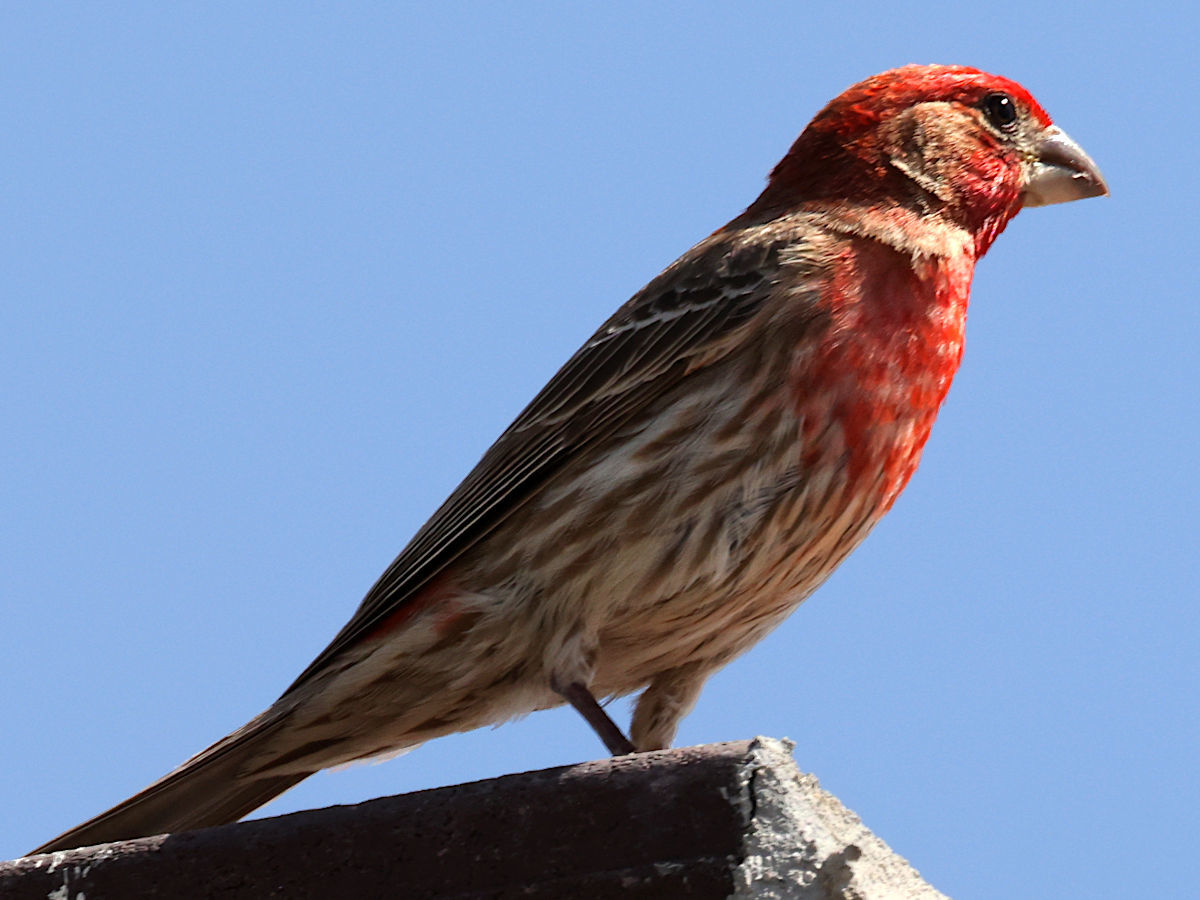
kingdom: Animalia
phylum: Chordata
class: Aves
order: Passeriformes
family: Fringillidae
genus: Haemorhous
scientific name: Haemorhous mexicanus
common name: House finch
